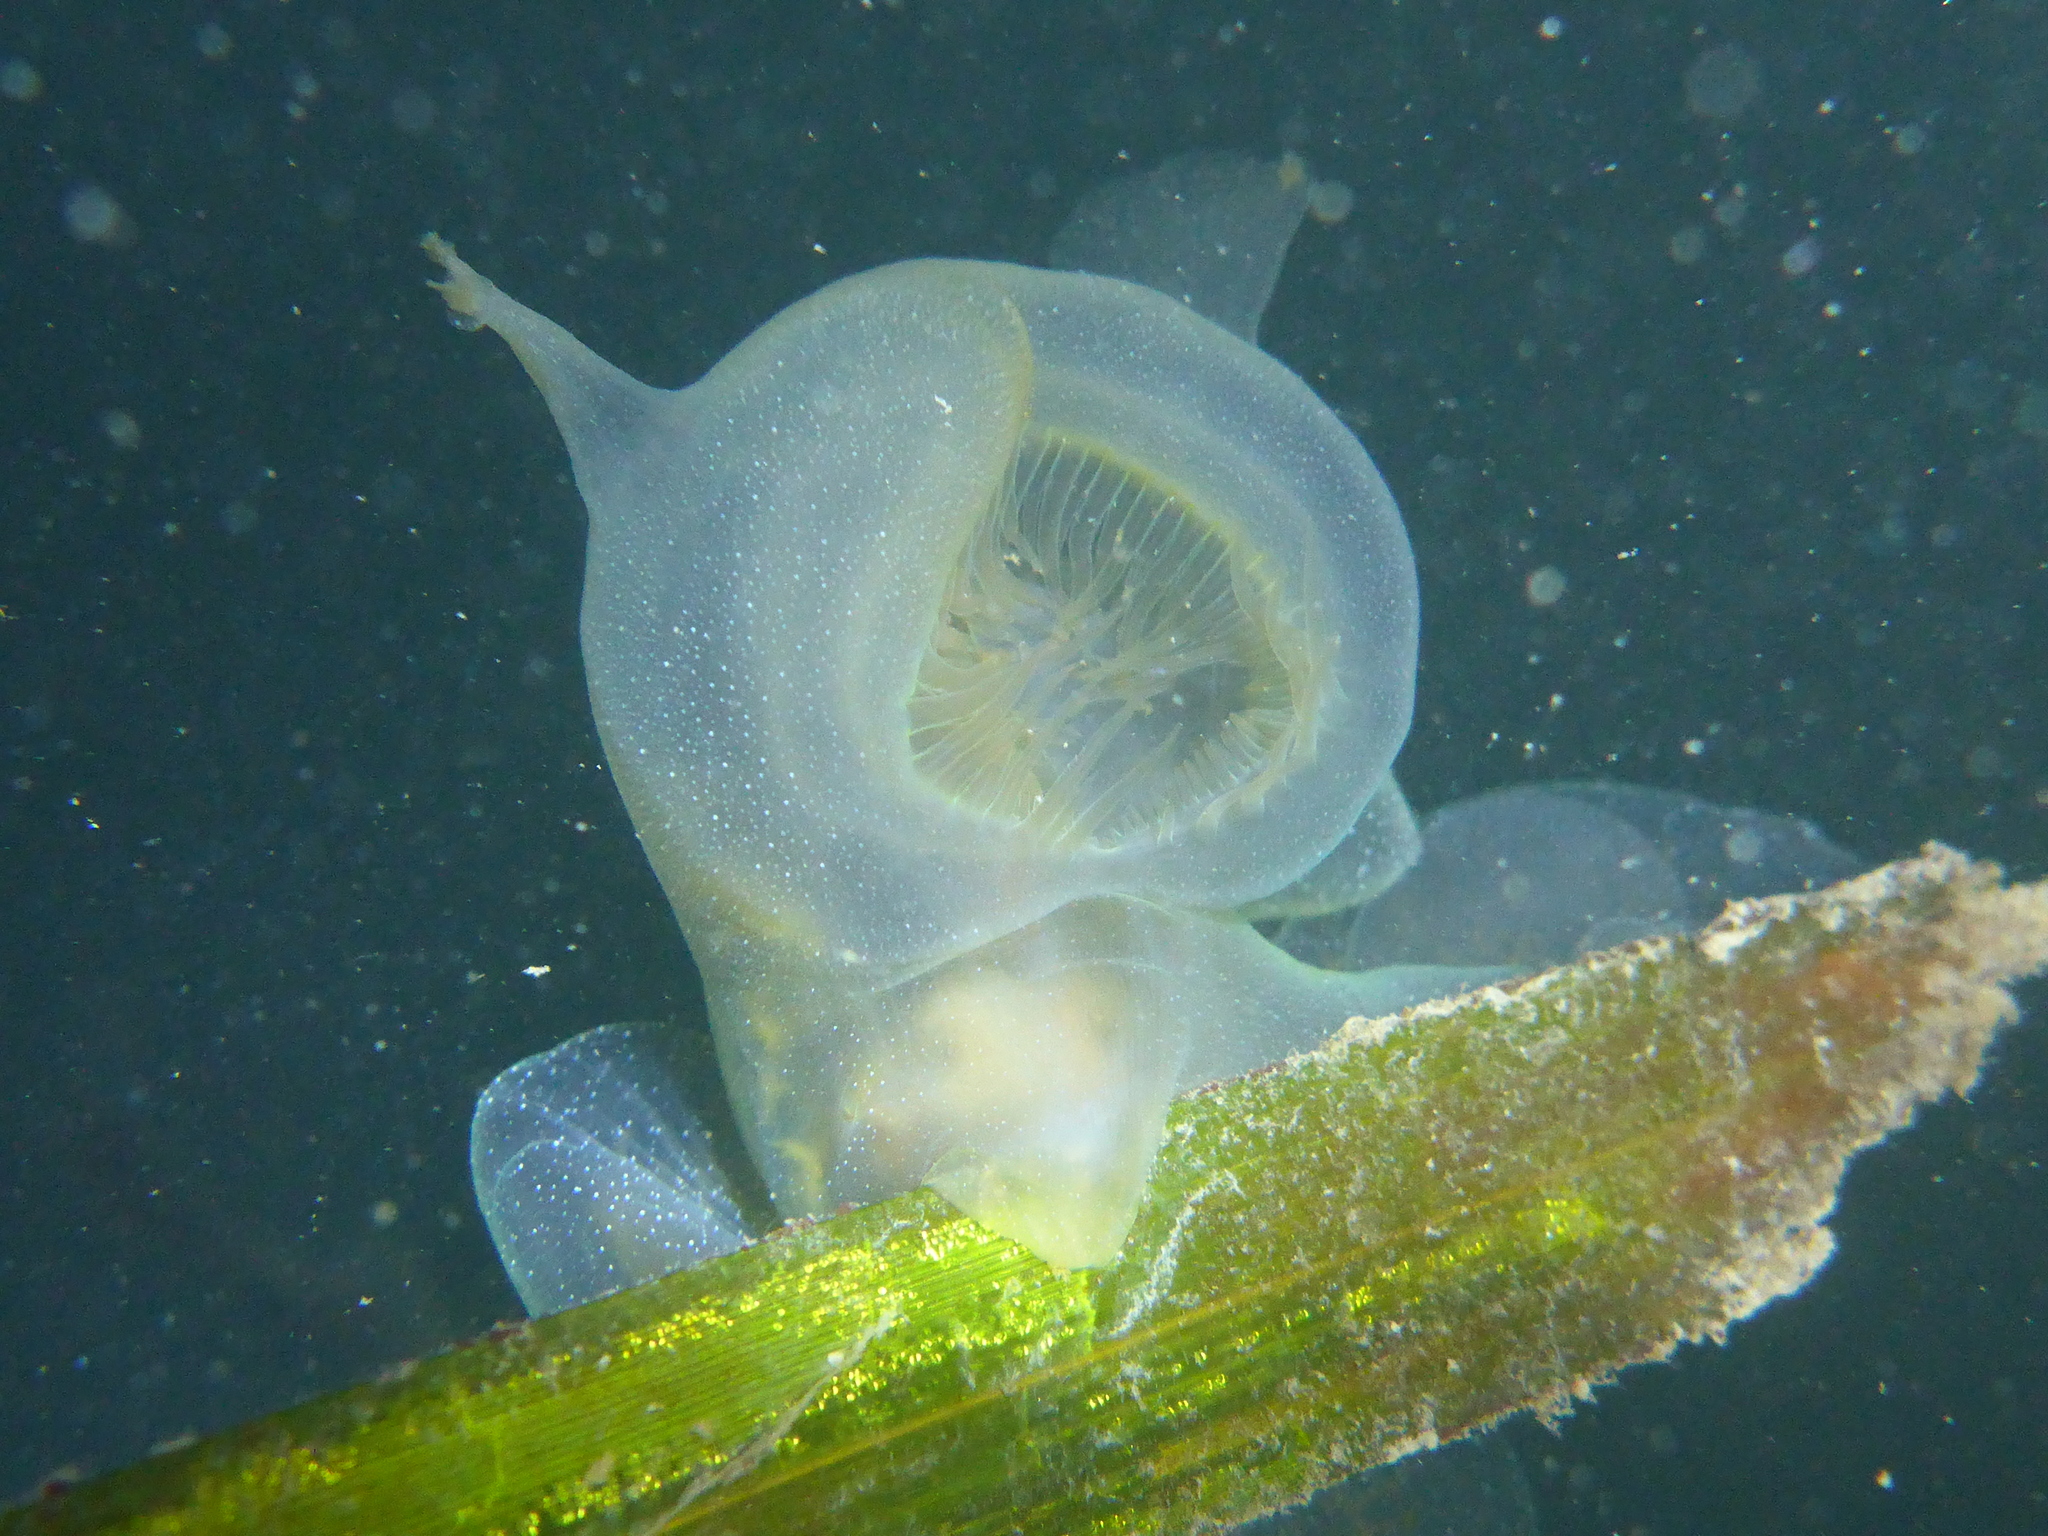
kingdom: Animalia
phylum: Mollusca
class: Gastropoda
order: Nudibranchia
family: Tethydidae
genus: Melibe
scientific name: Melibe leonina
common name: Lion nudibranch
